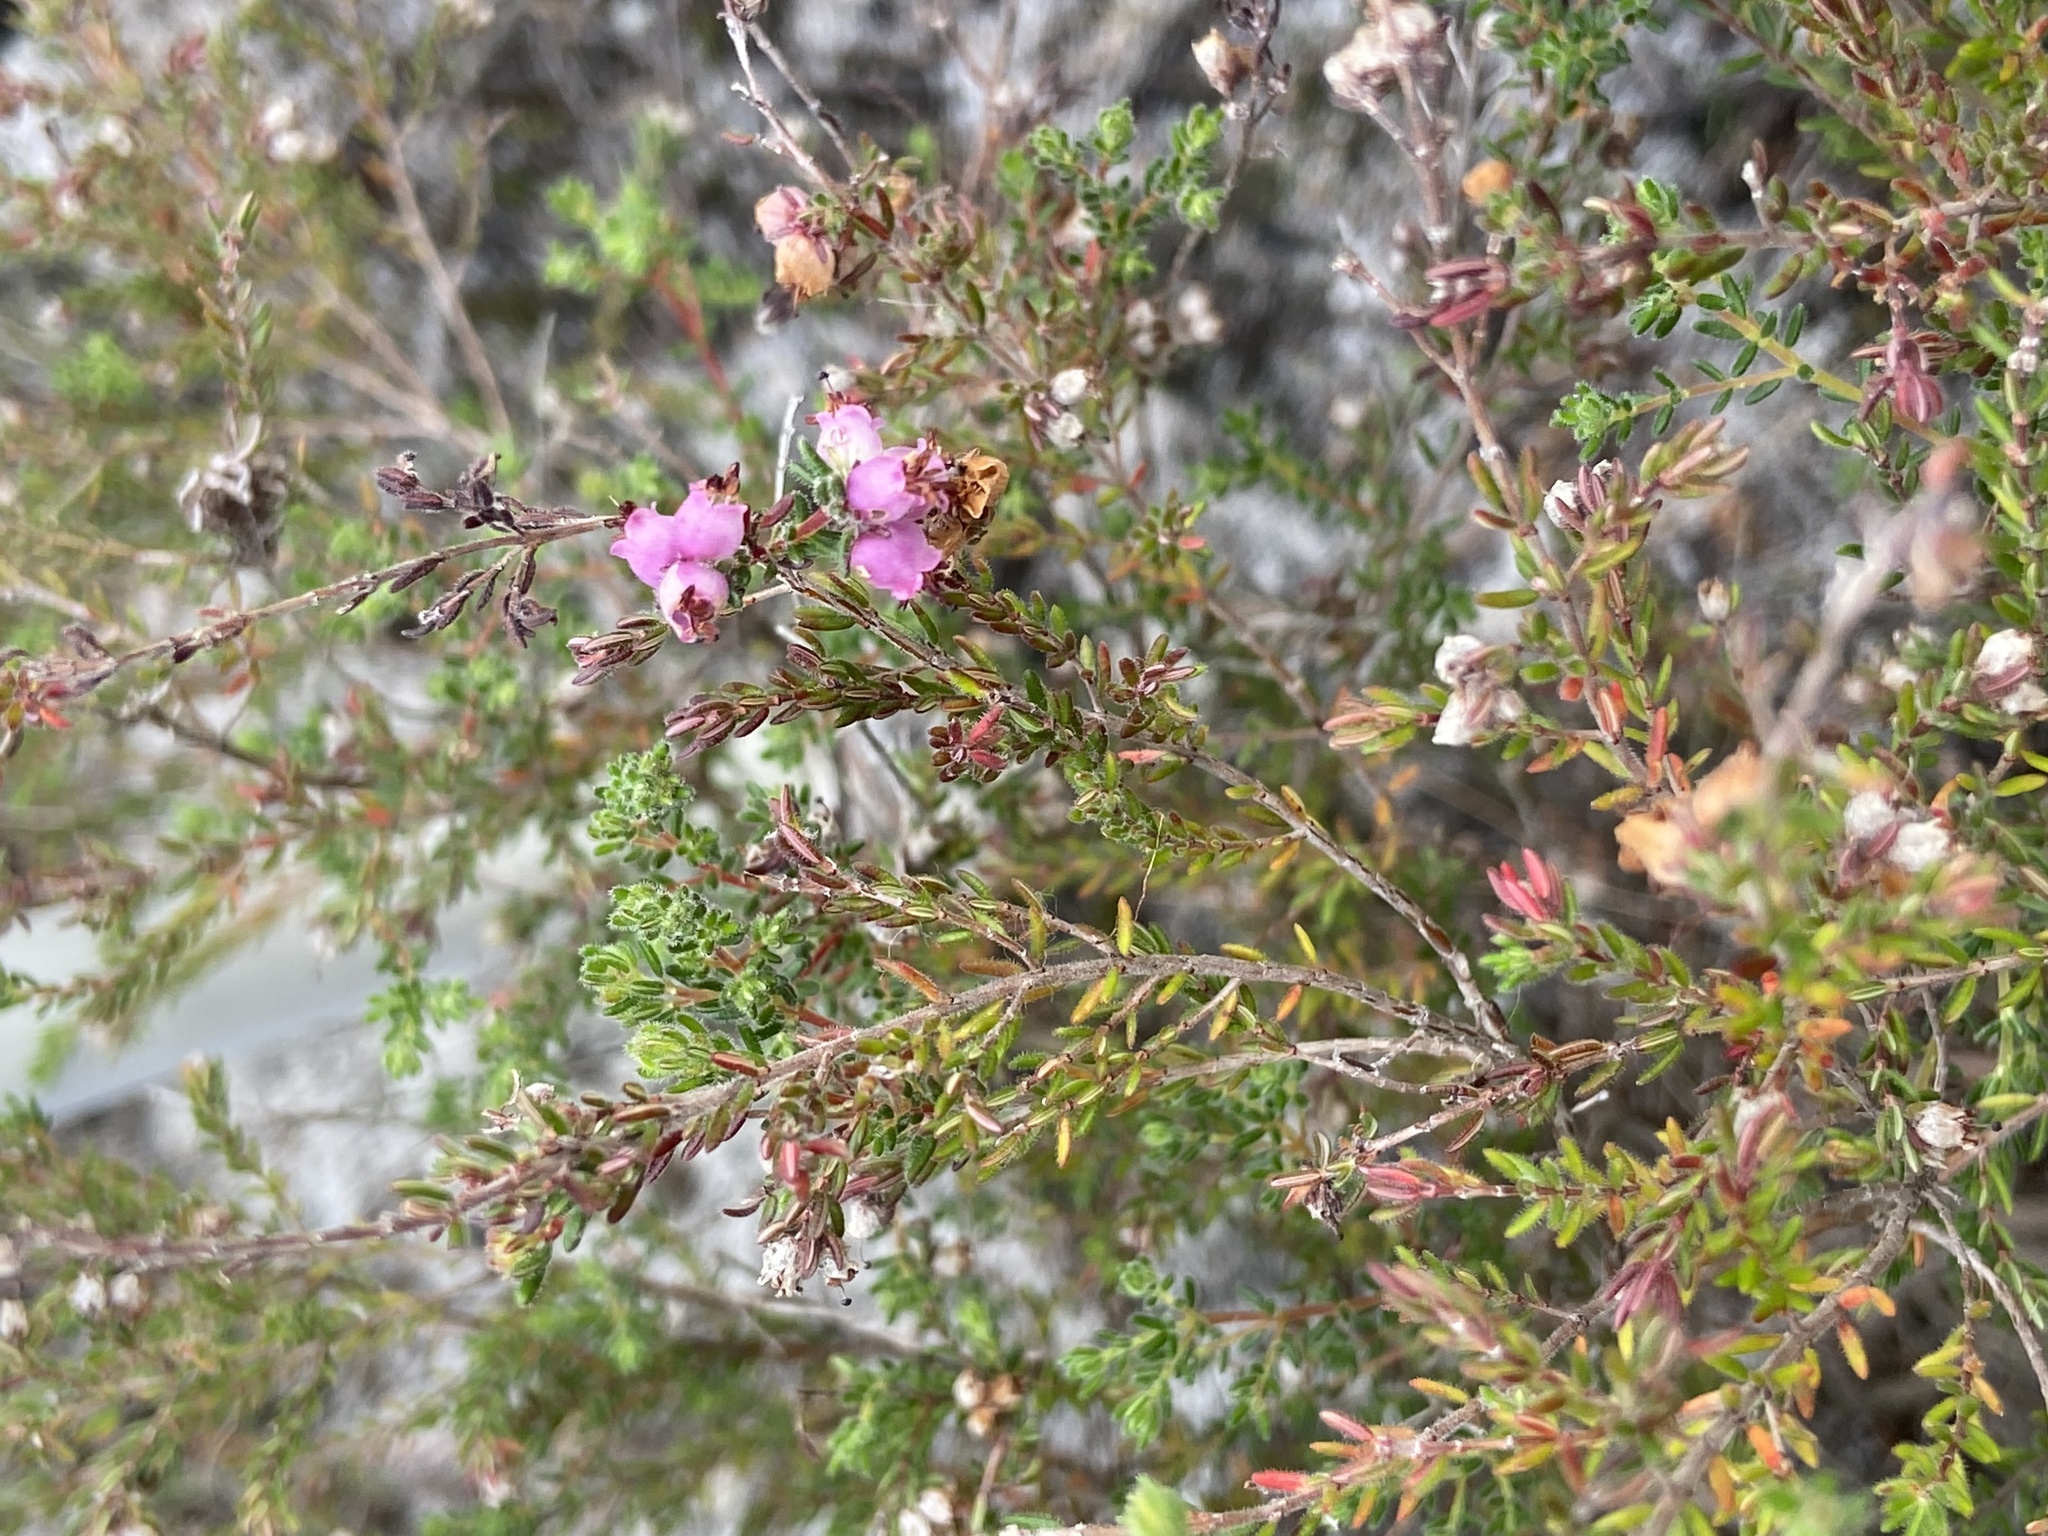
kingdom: Plantae
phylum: Tracheophyta
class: Magnoliopsida
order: Ericales
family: Ericaceae
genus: Erica
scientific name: Erica turgida
